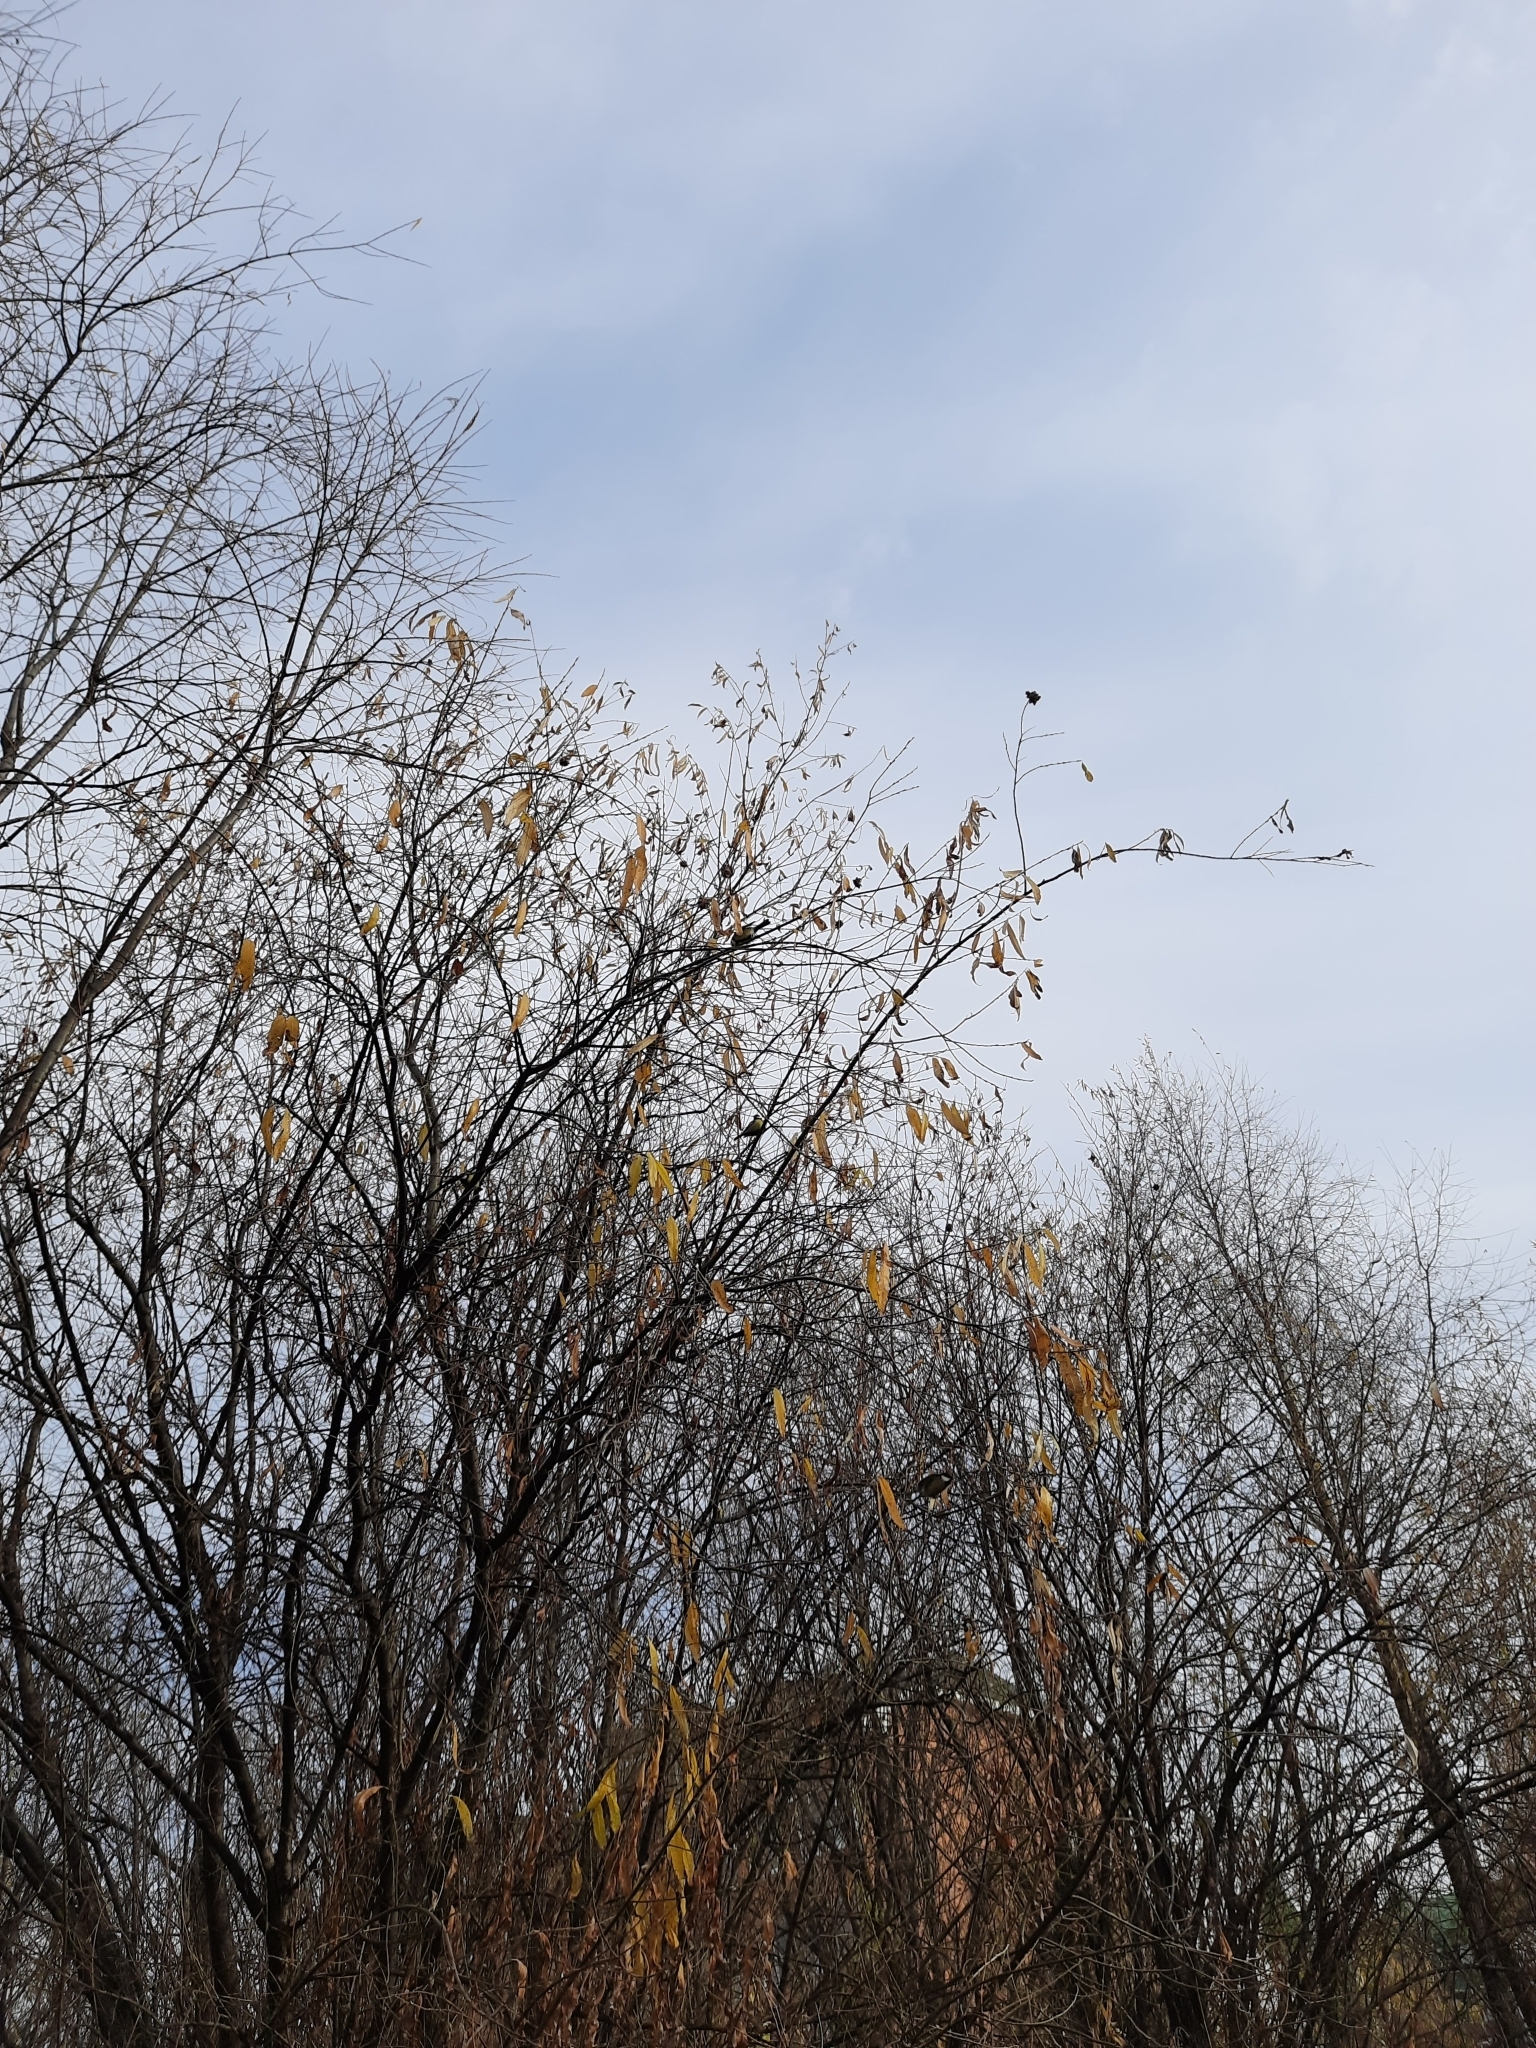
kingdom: Animalia
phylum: Chordata
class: Aves
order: Passeriformes
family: Paridae
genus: Parus
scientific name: Parus major
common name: Great tit
